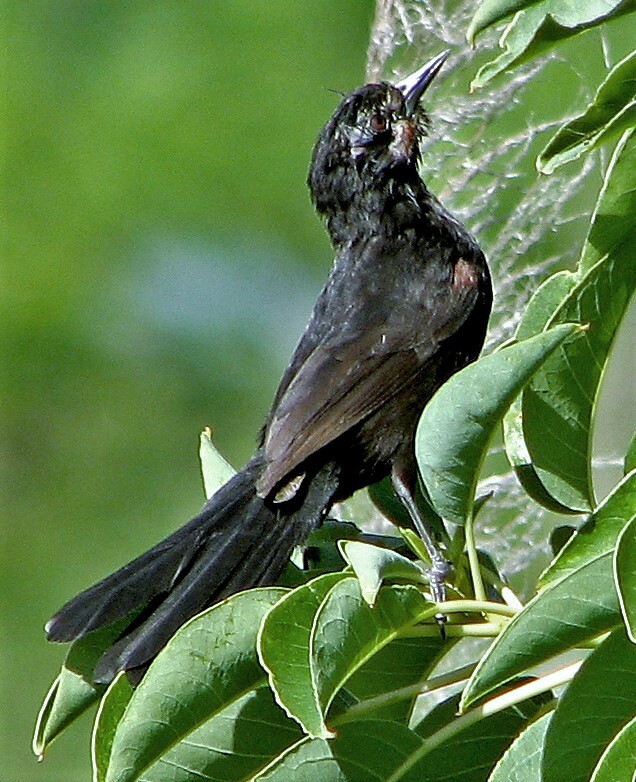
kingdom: Animalia
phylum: Chordata
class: Aves
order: Passeriformes
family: Icteridae
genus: Icterus
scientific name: Icterus cayanensis
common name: Epaulet oriole
